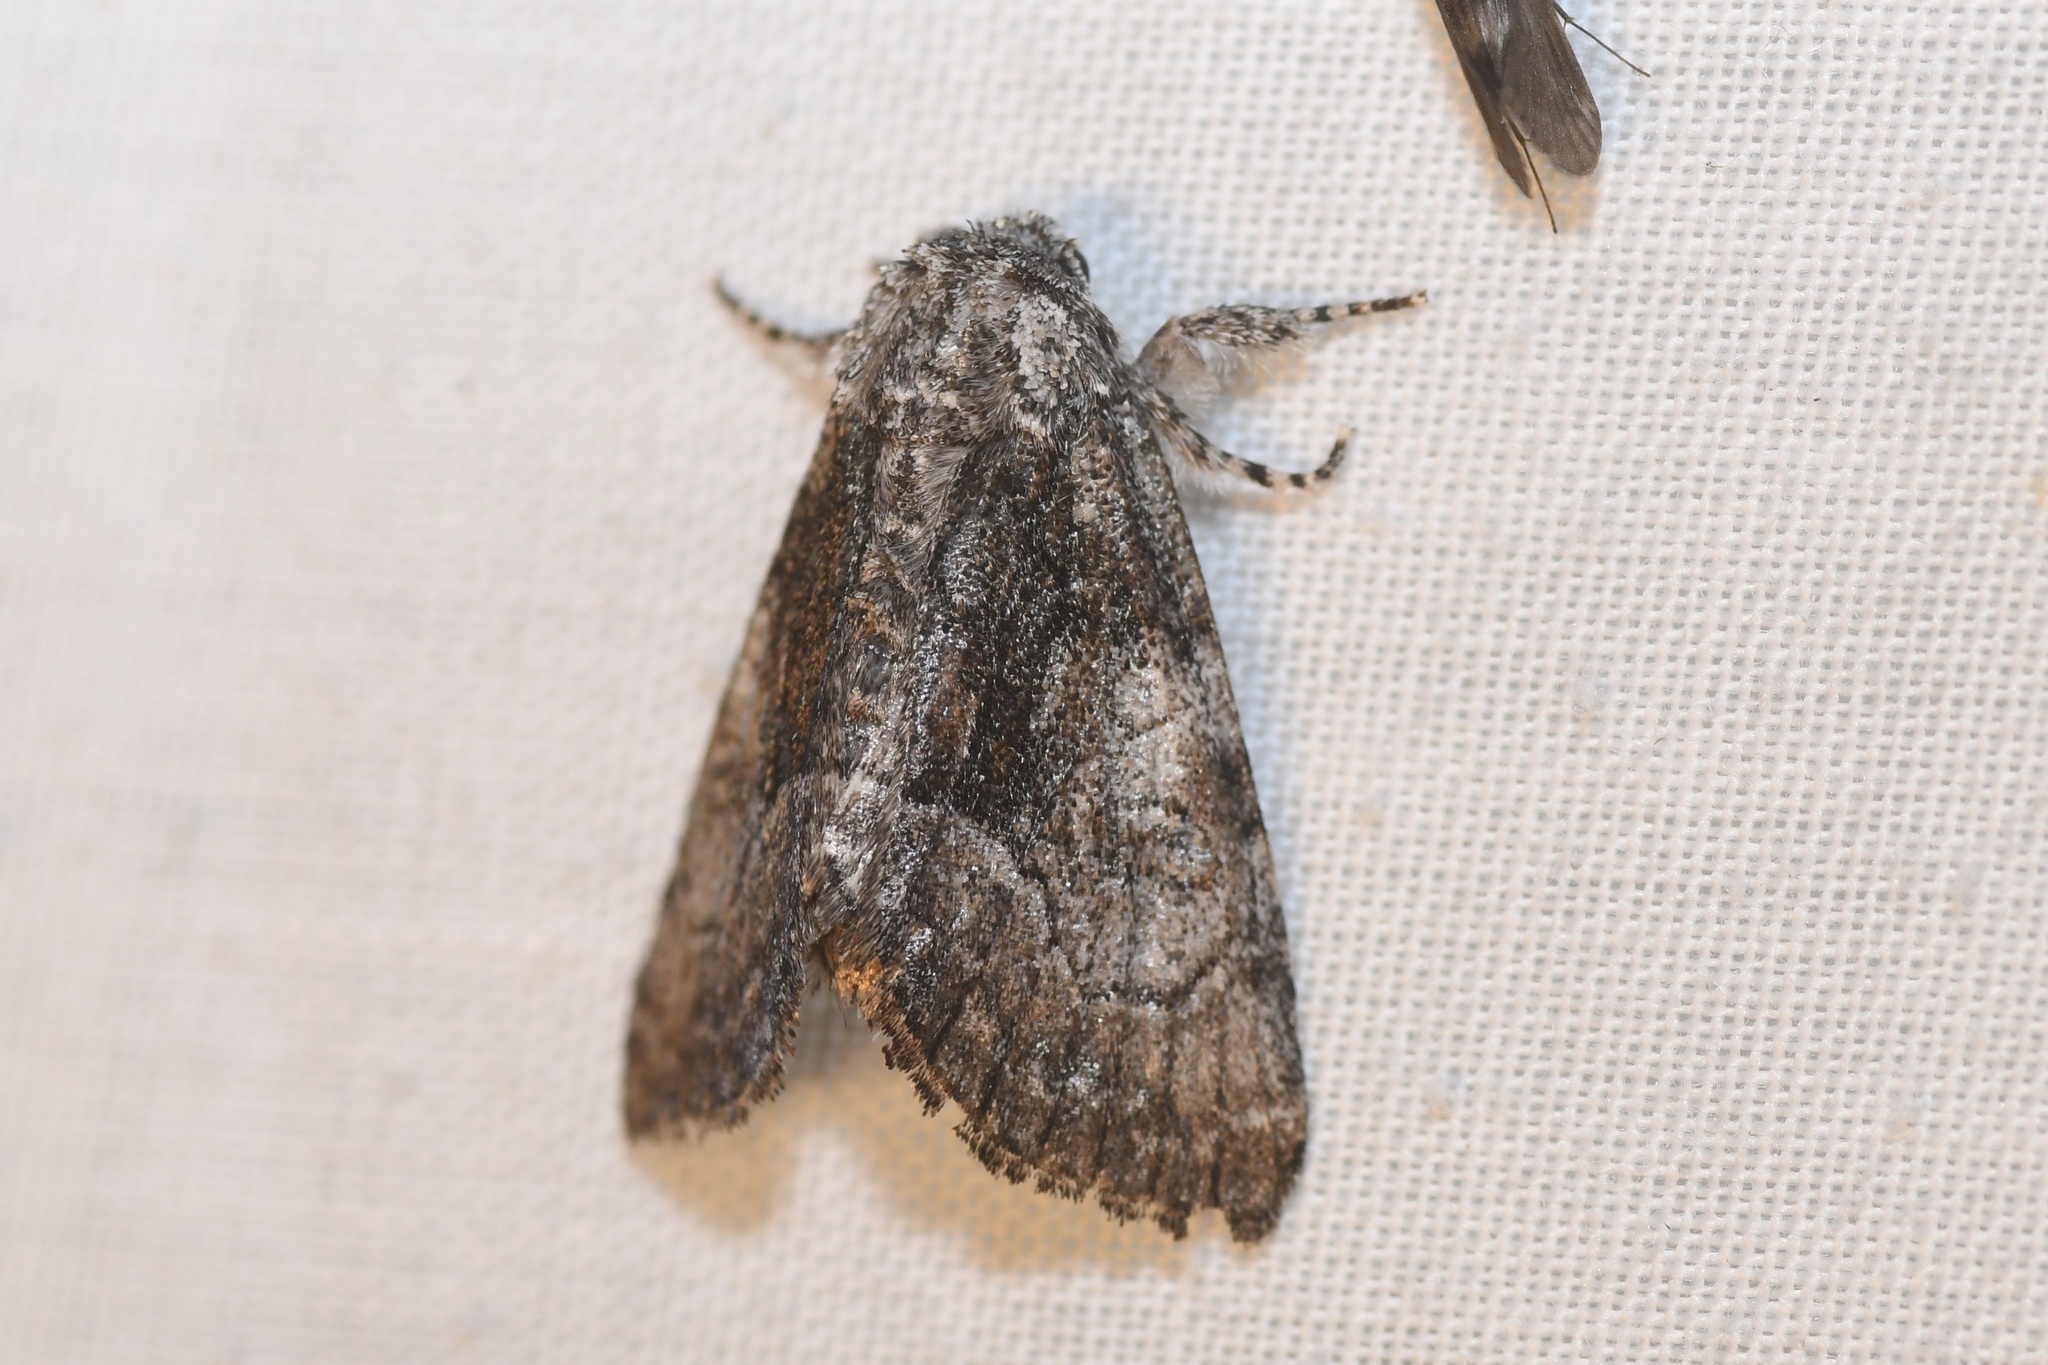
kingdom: Animalia
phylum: Arthropoda
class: Insecta
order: Lepidoptera
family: Noctuidae
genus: Raphia
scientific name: Raphia frater
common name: Brother
